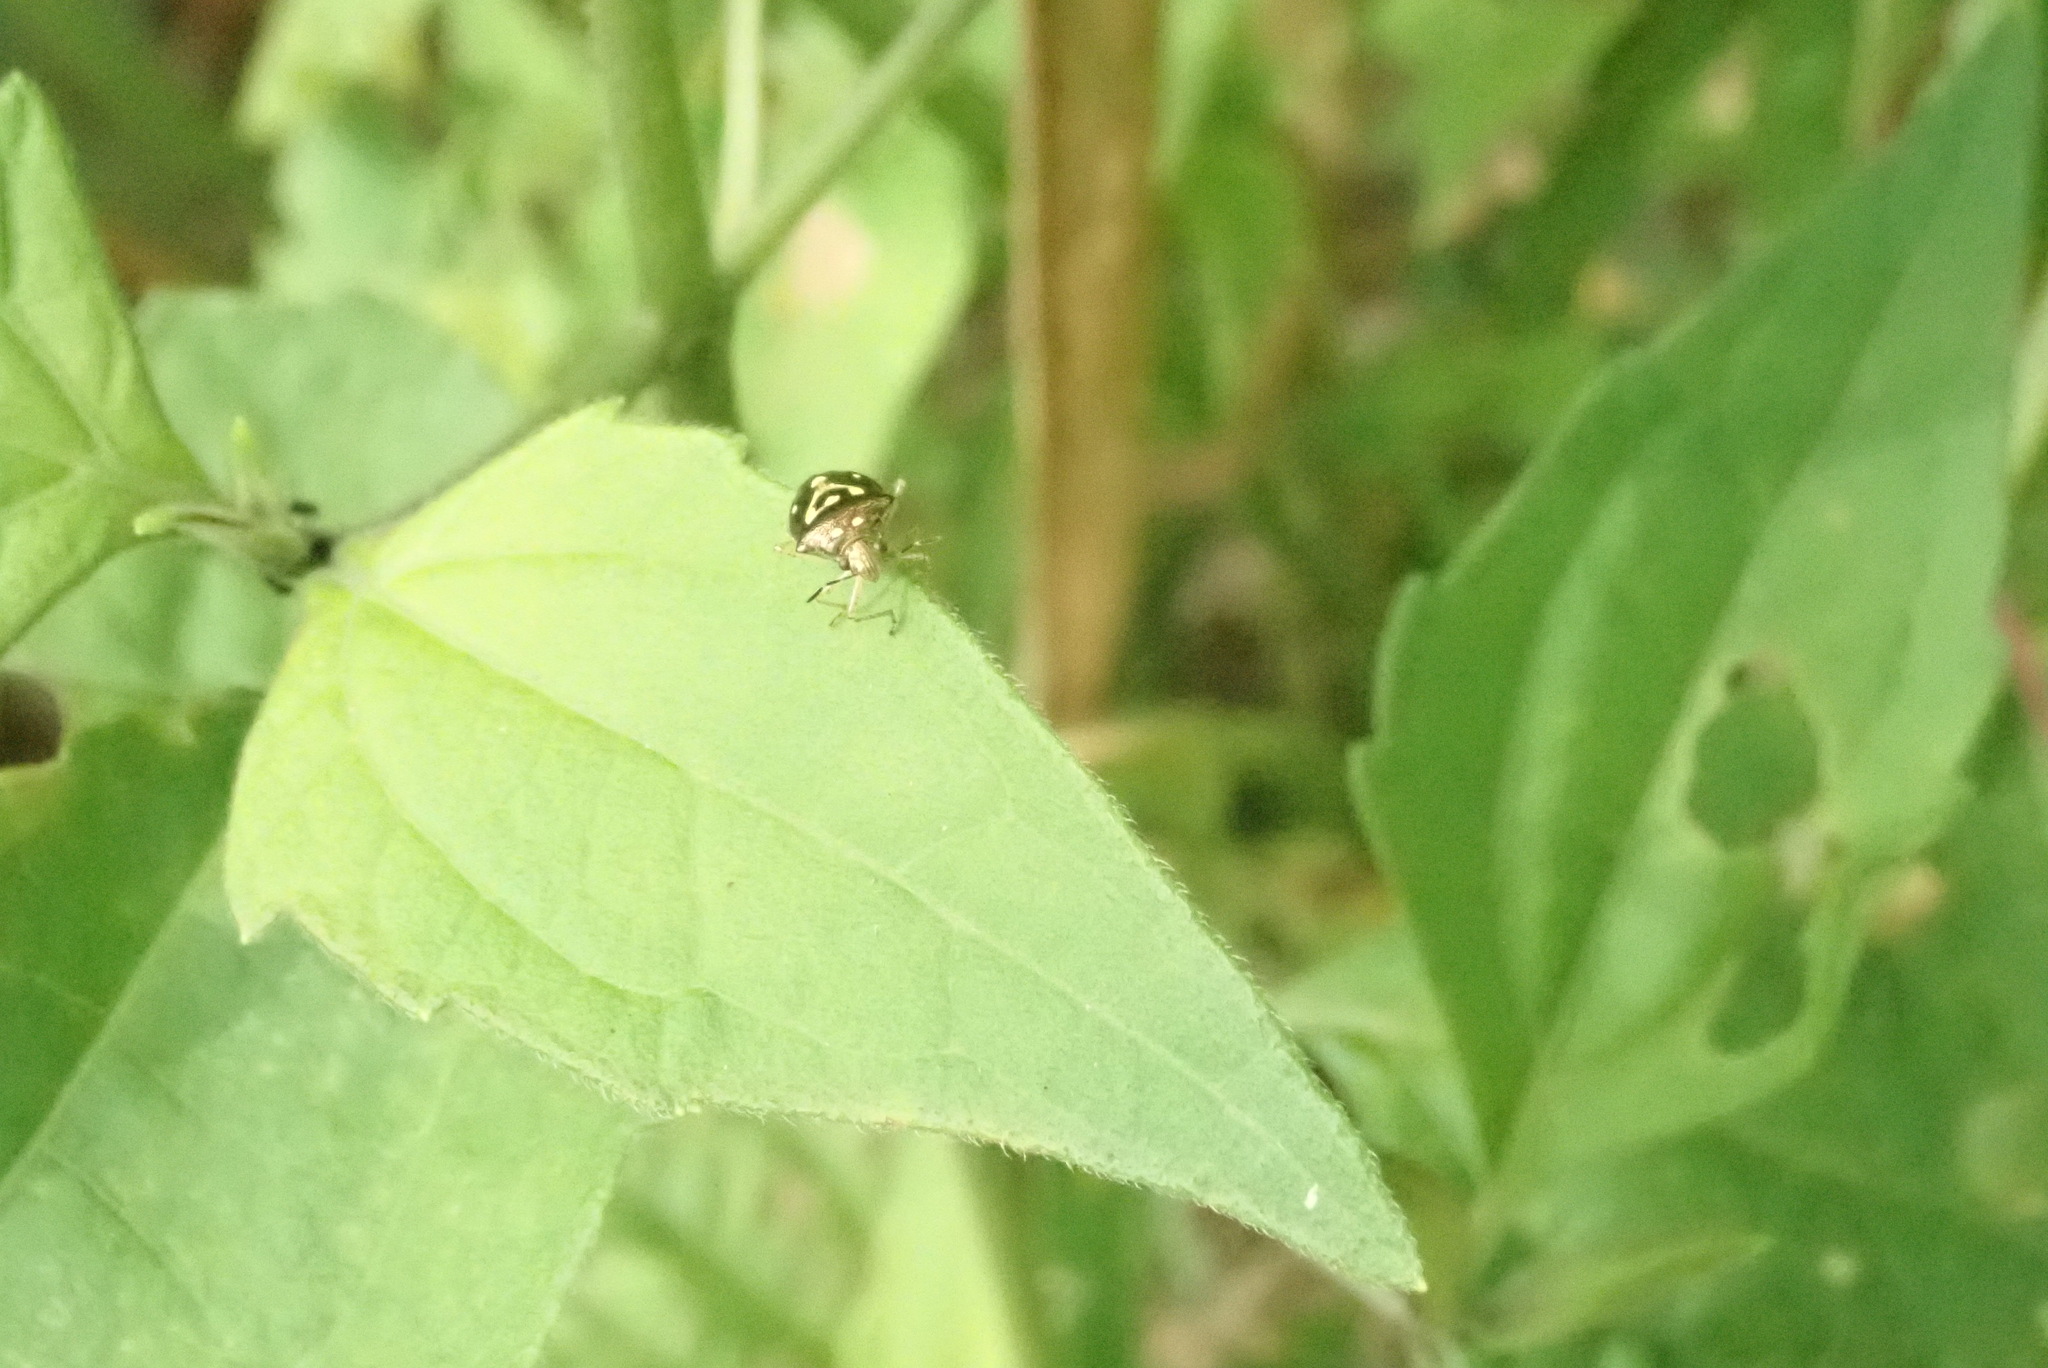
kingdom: Animalia
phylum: Arthropoda
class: Insecta
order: Hemiptera
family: Pentatomidae
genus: Mormidea
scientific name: Mormidea ypsilon
